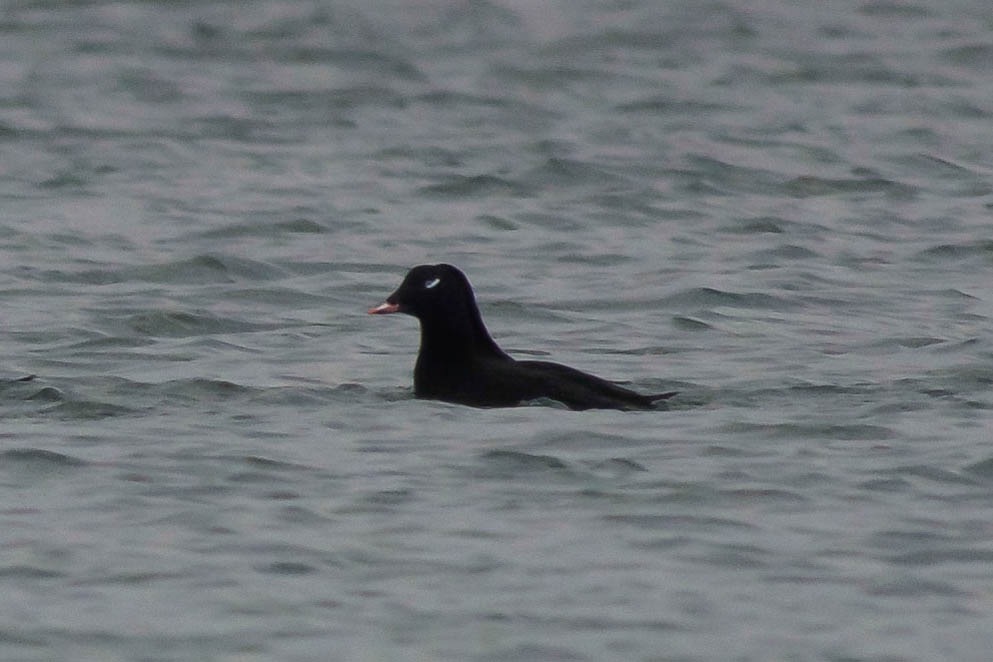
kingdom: Animalia
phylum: Chordata
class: Aves
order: Anseriformes
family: Anatidae
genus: Melanitta
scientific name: Melanitta deglandi
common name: White-winged scoter
